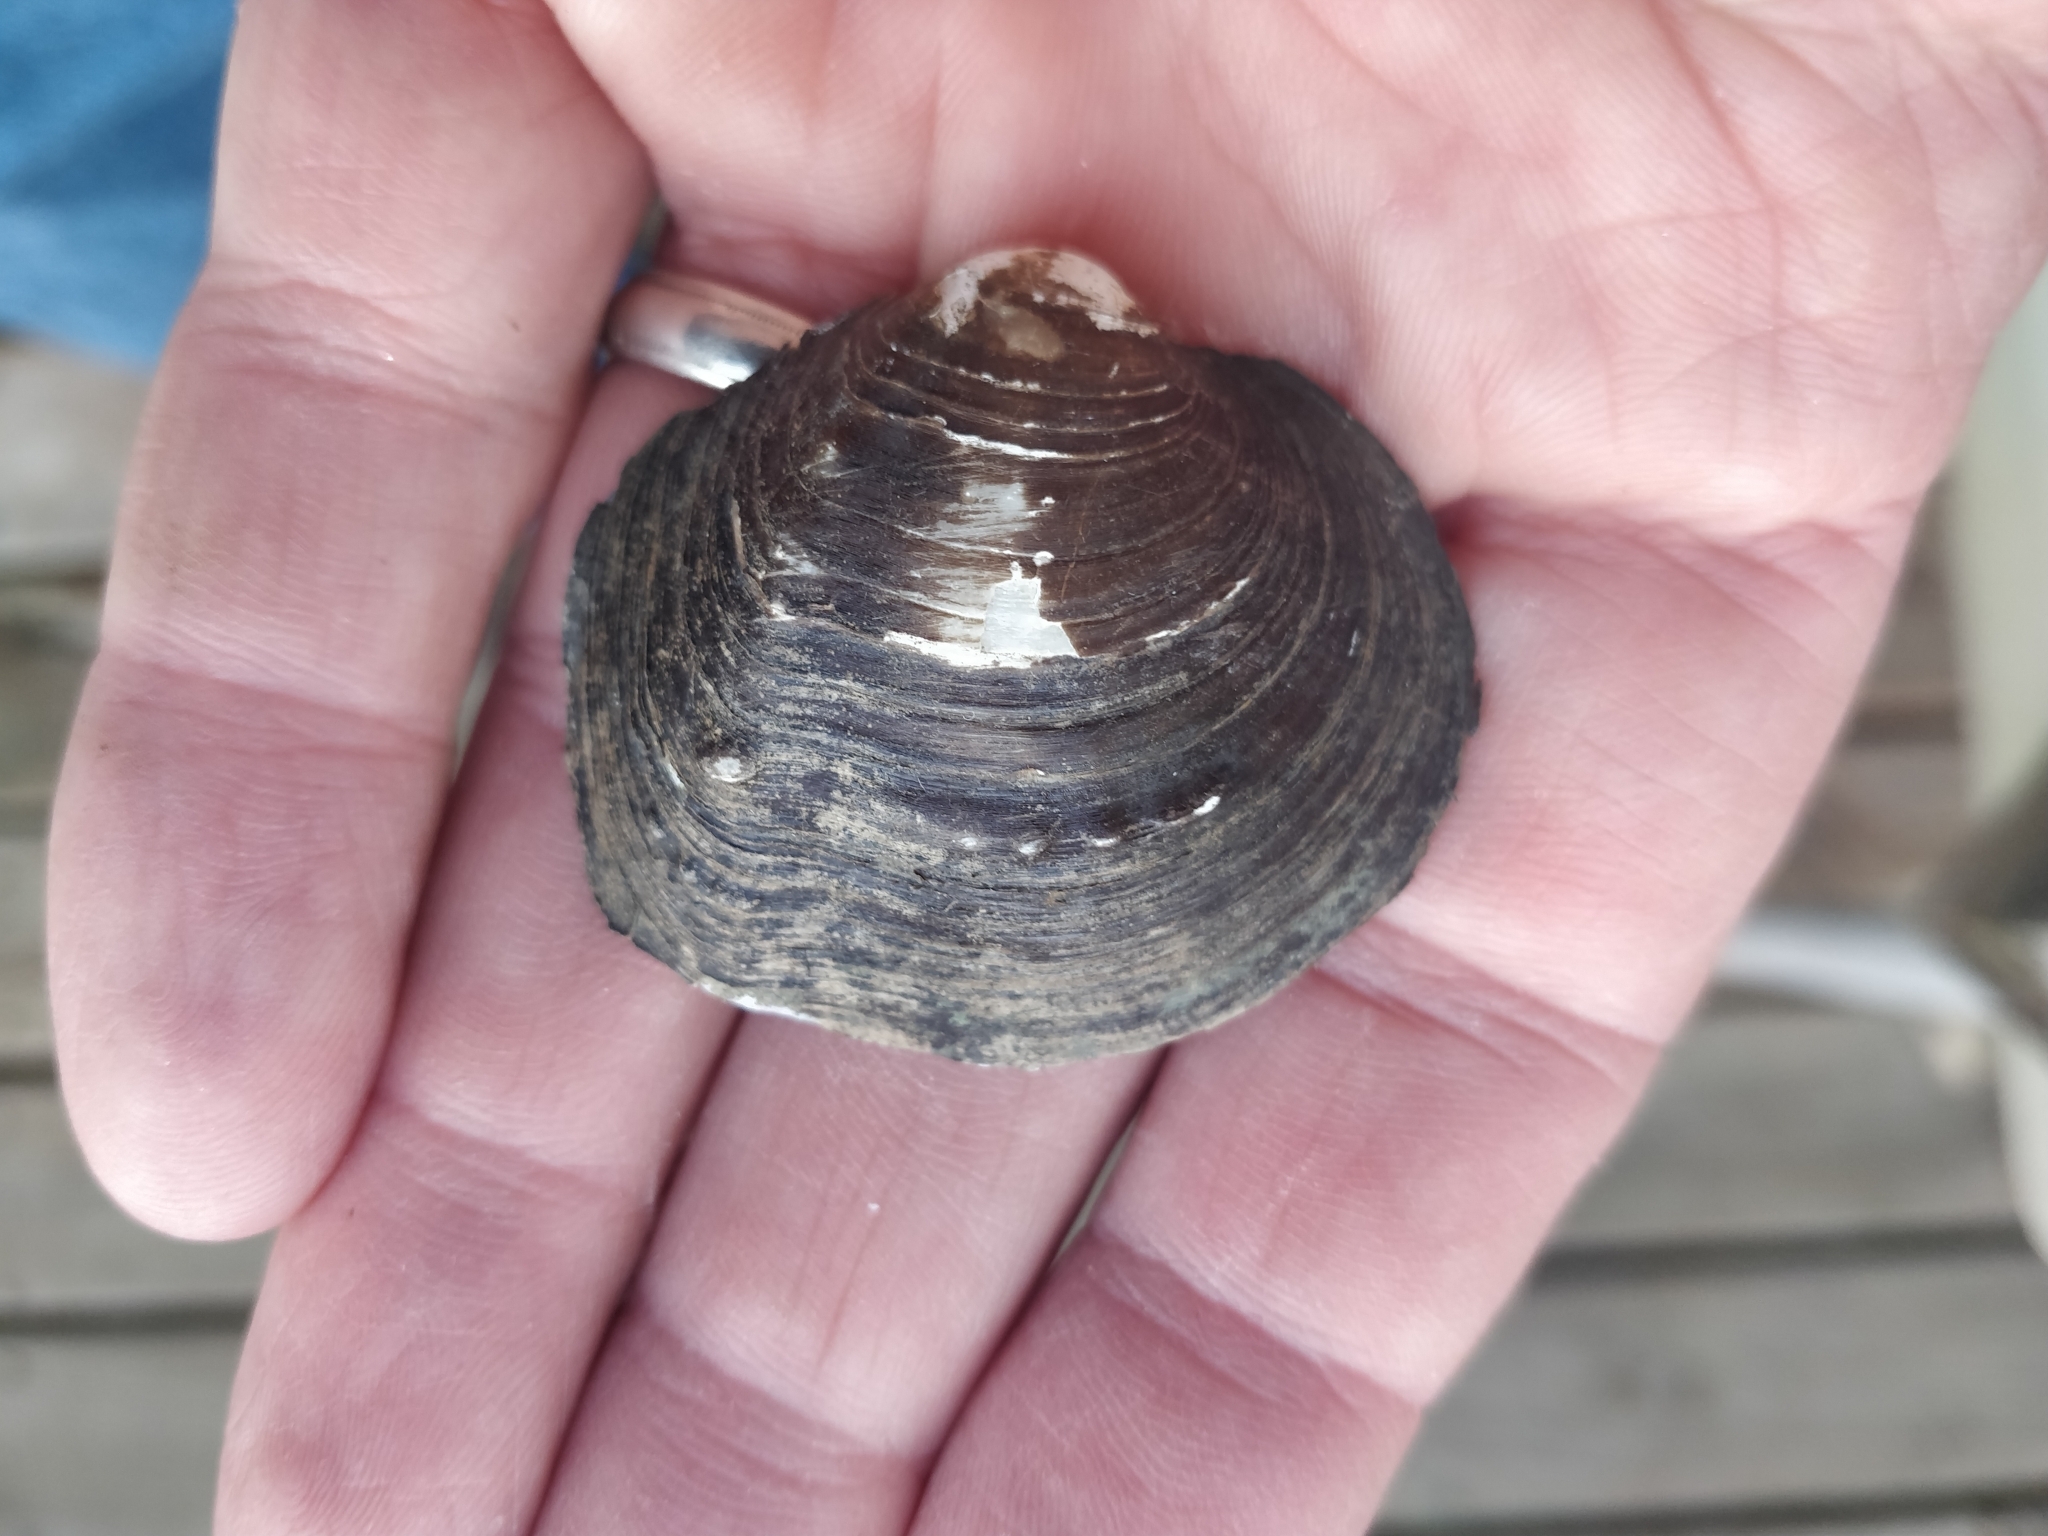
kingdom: Animalia
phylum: Mollusca
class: Bivalvia
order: Unionida
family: Unionidae
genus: Cyclonaias
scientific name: Cyclonaias pustulosa
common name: Pimpleback
